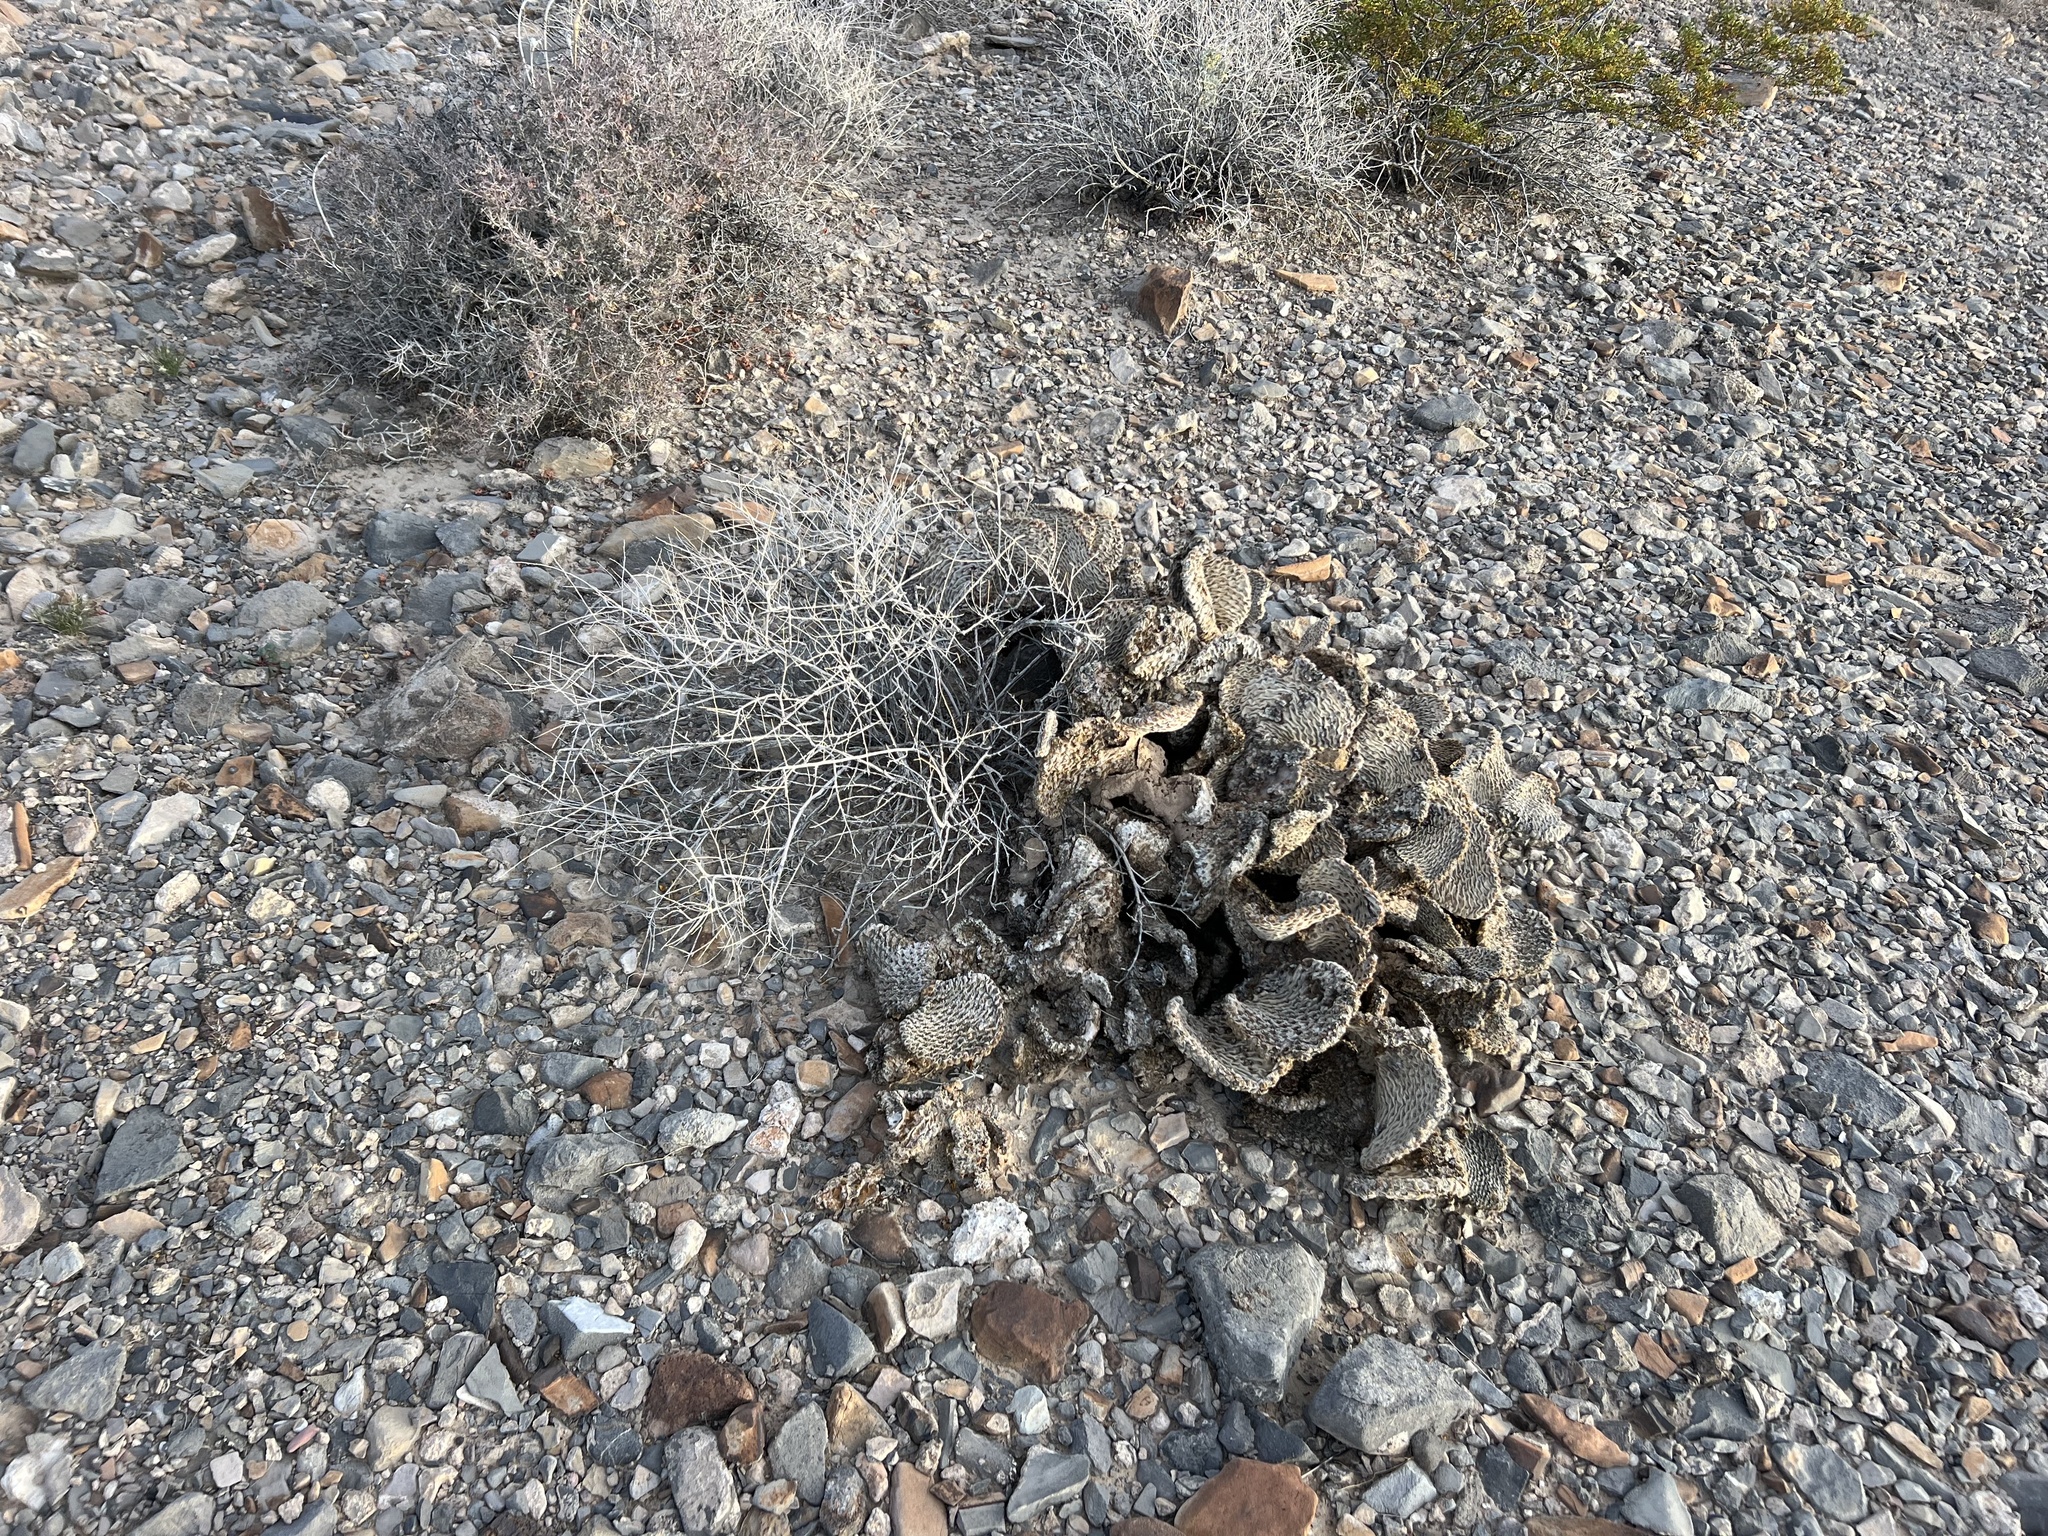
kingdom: Plantae
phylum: Tracheophyta
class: Magnoliopsida
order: Caryophyllales
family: Cactaceae
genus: Opuntia
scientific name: Opuntia basilaris
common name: Beavertail prickly-pear
